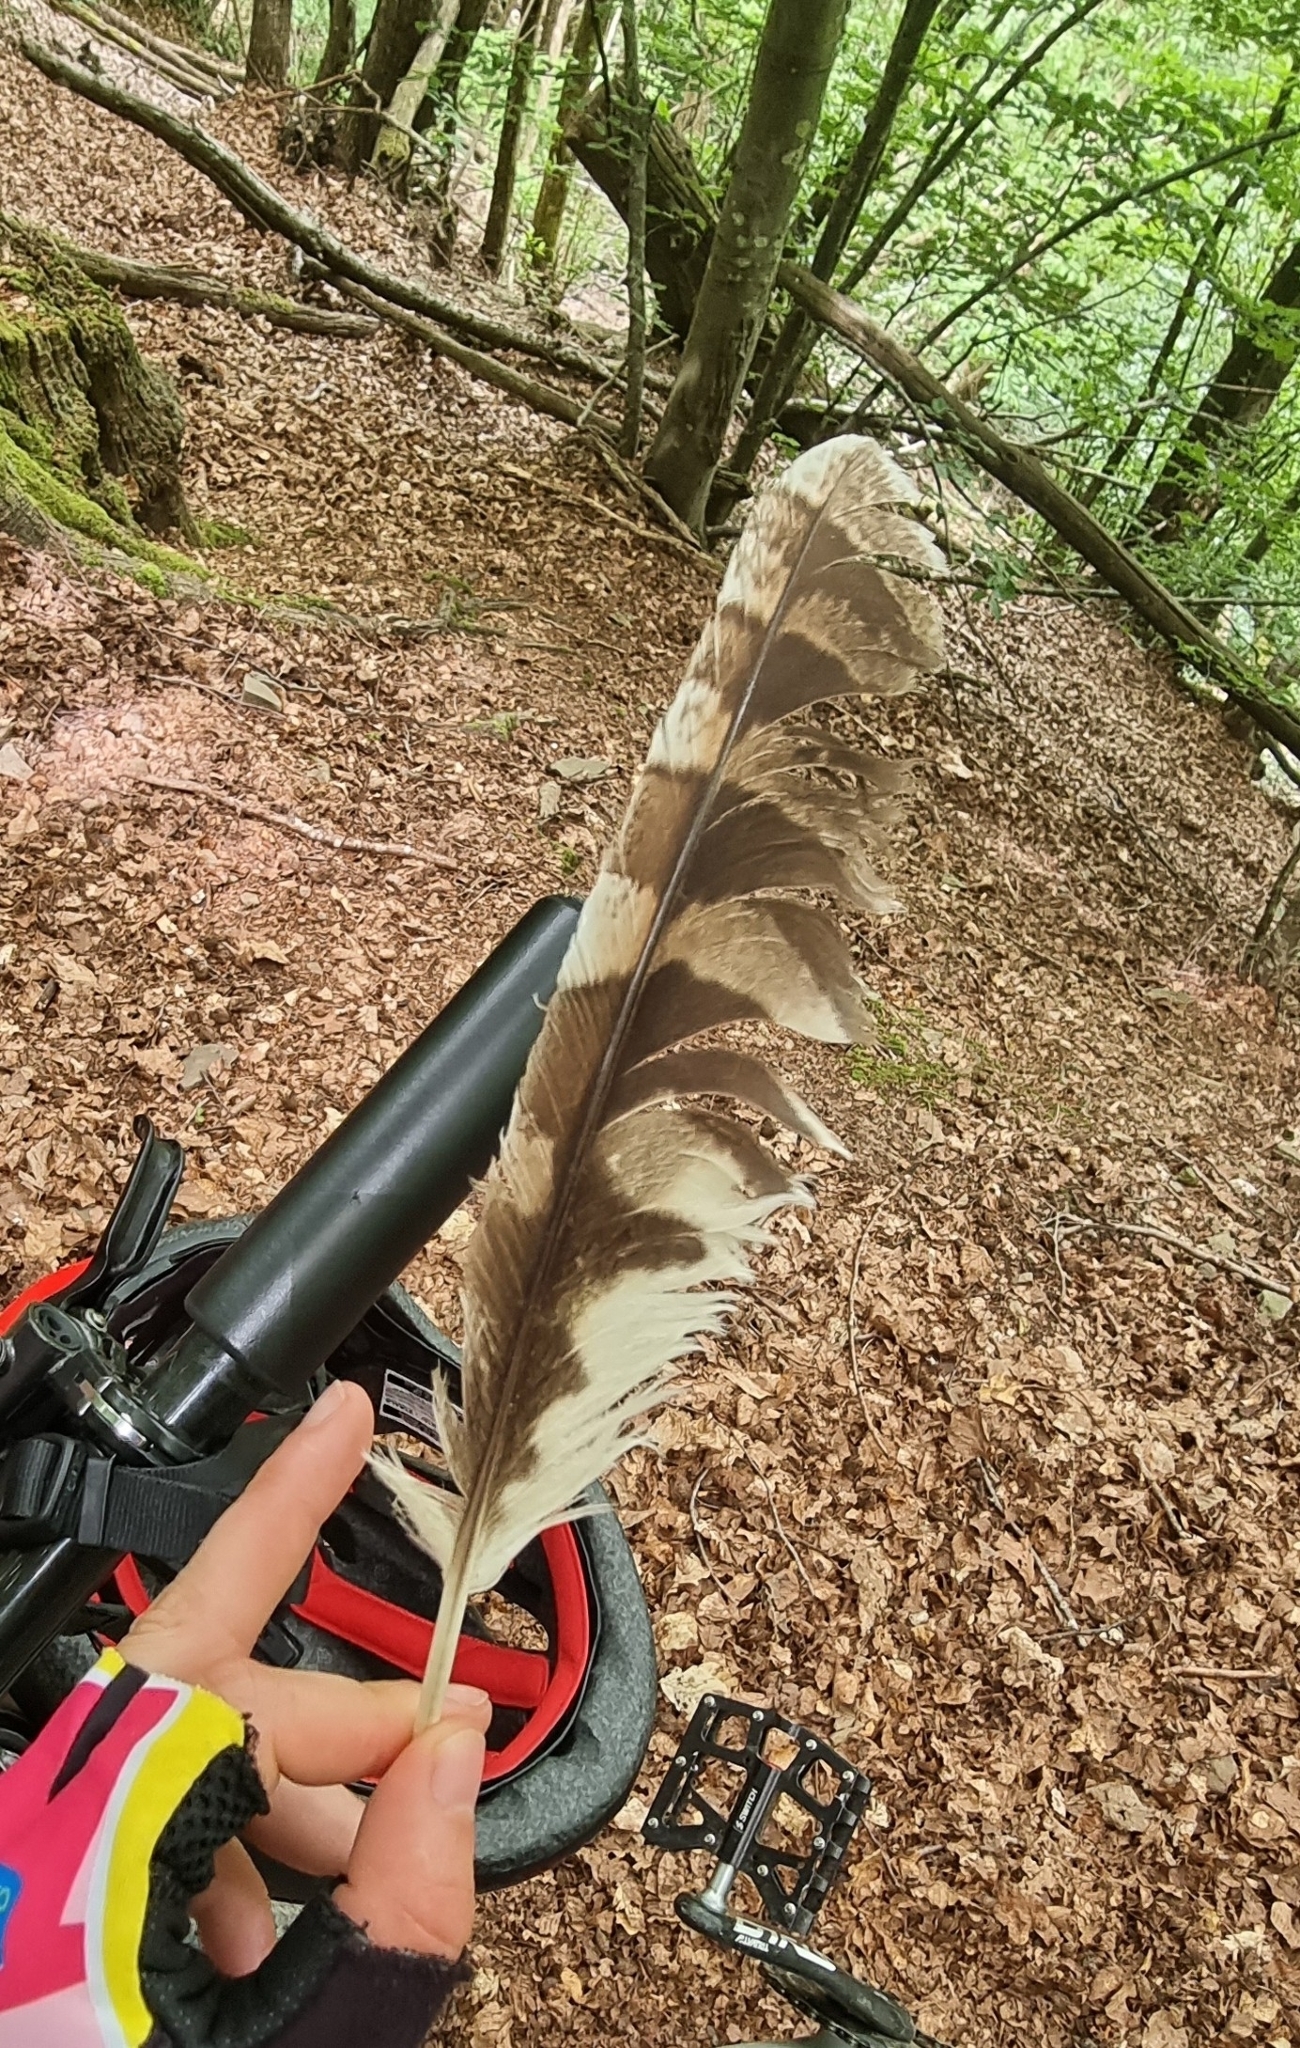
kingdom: Animalia
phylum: Chordata
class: Aves
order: Strigiformes
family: Strigidae
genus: Strix
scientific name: Strix aluco
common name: Tawny owl
